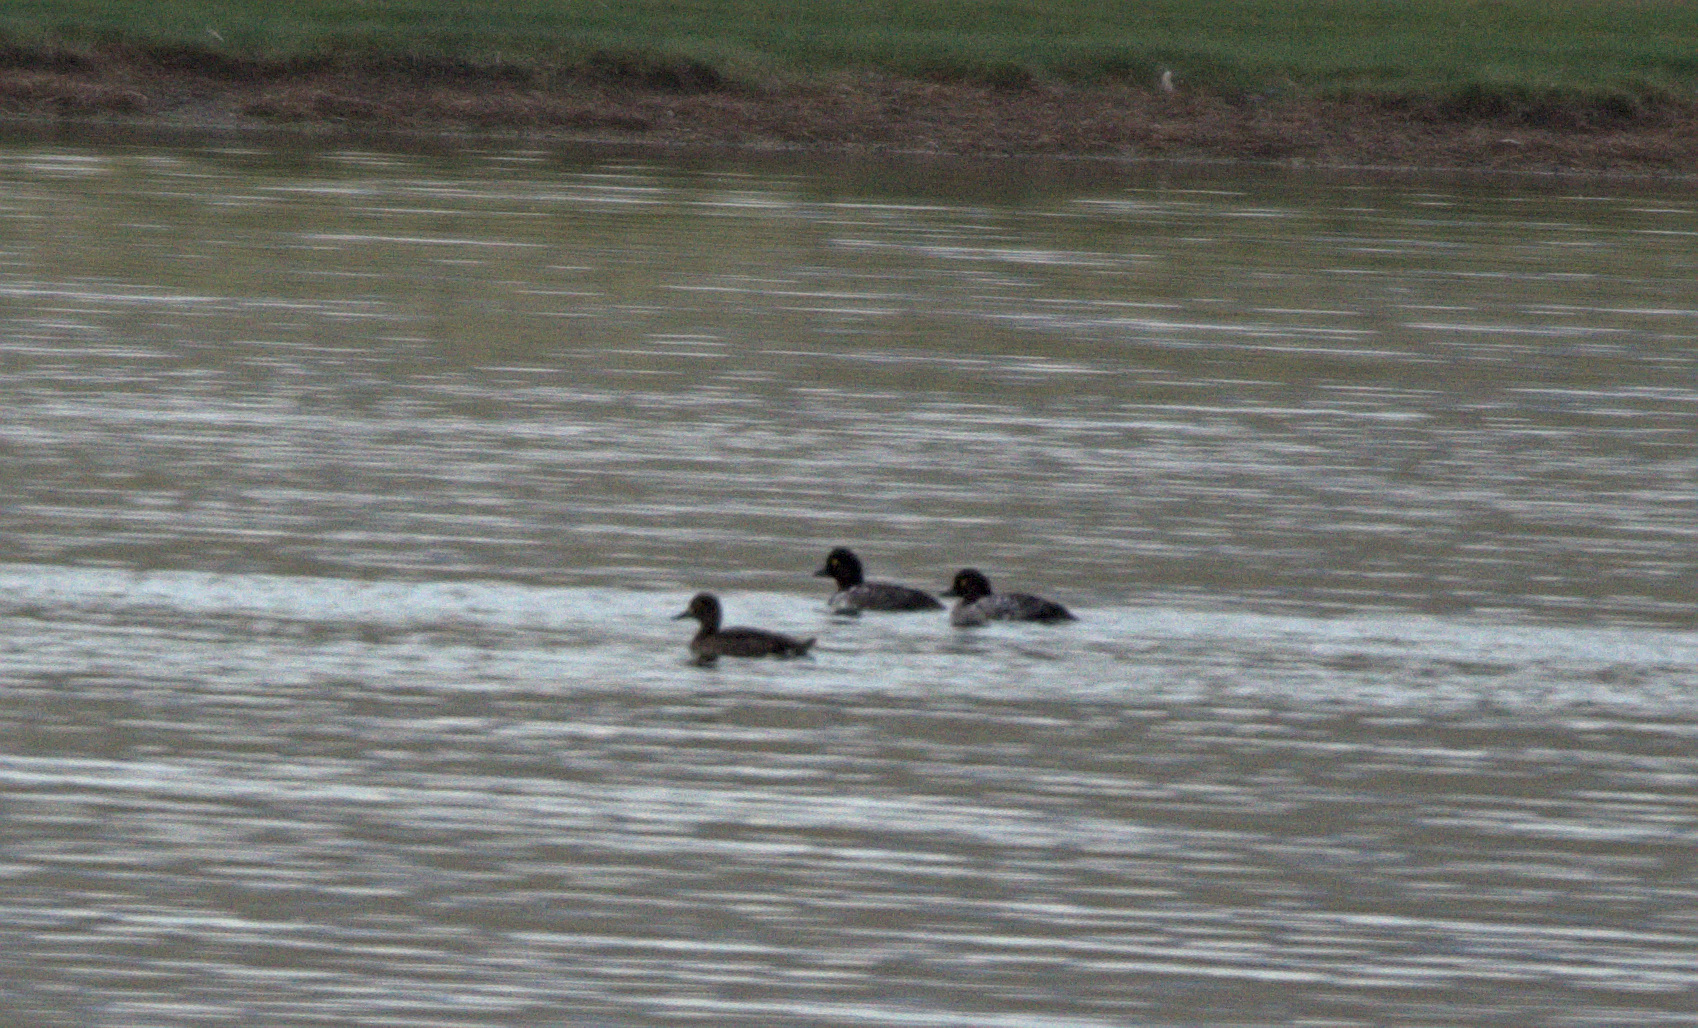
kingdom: Animalia
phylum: Chordata
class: Aves
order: Anseriformes
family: Anatidae
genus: Bucephala
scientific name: Bucephala clangula
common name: Common goldeneye
